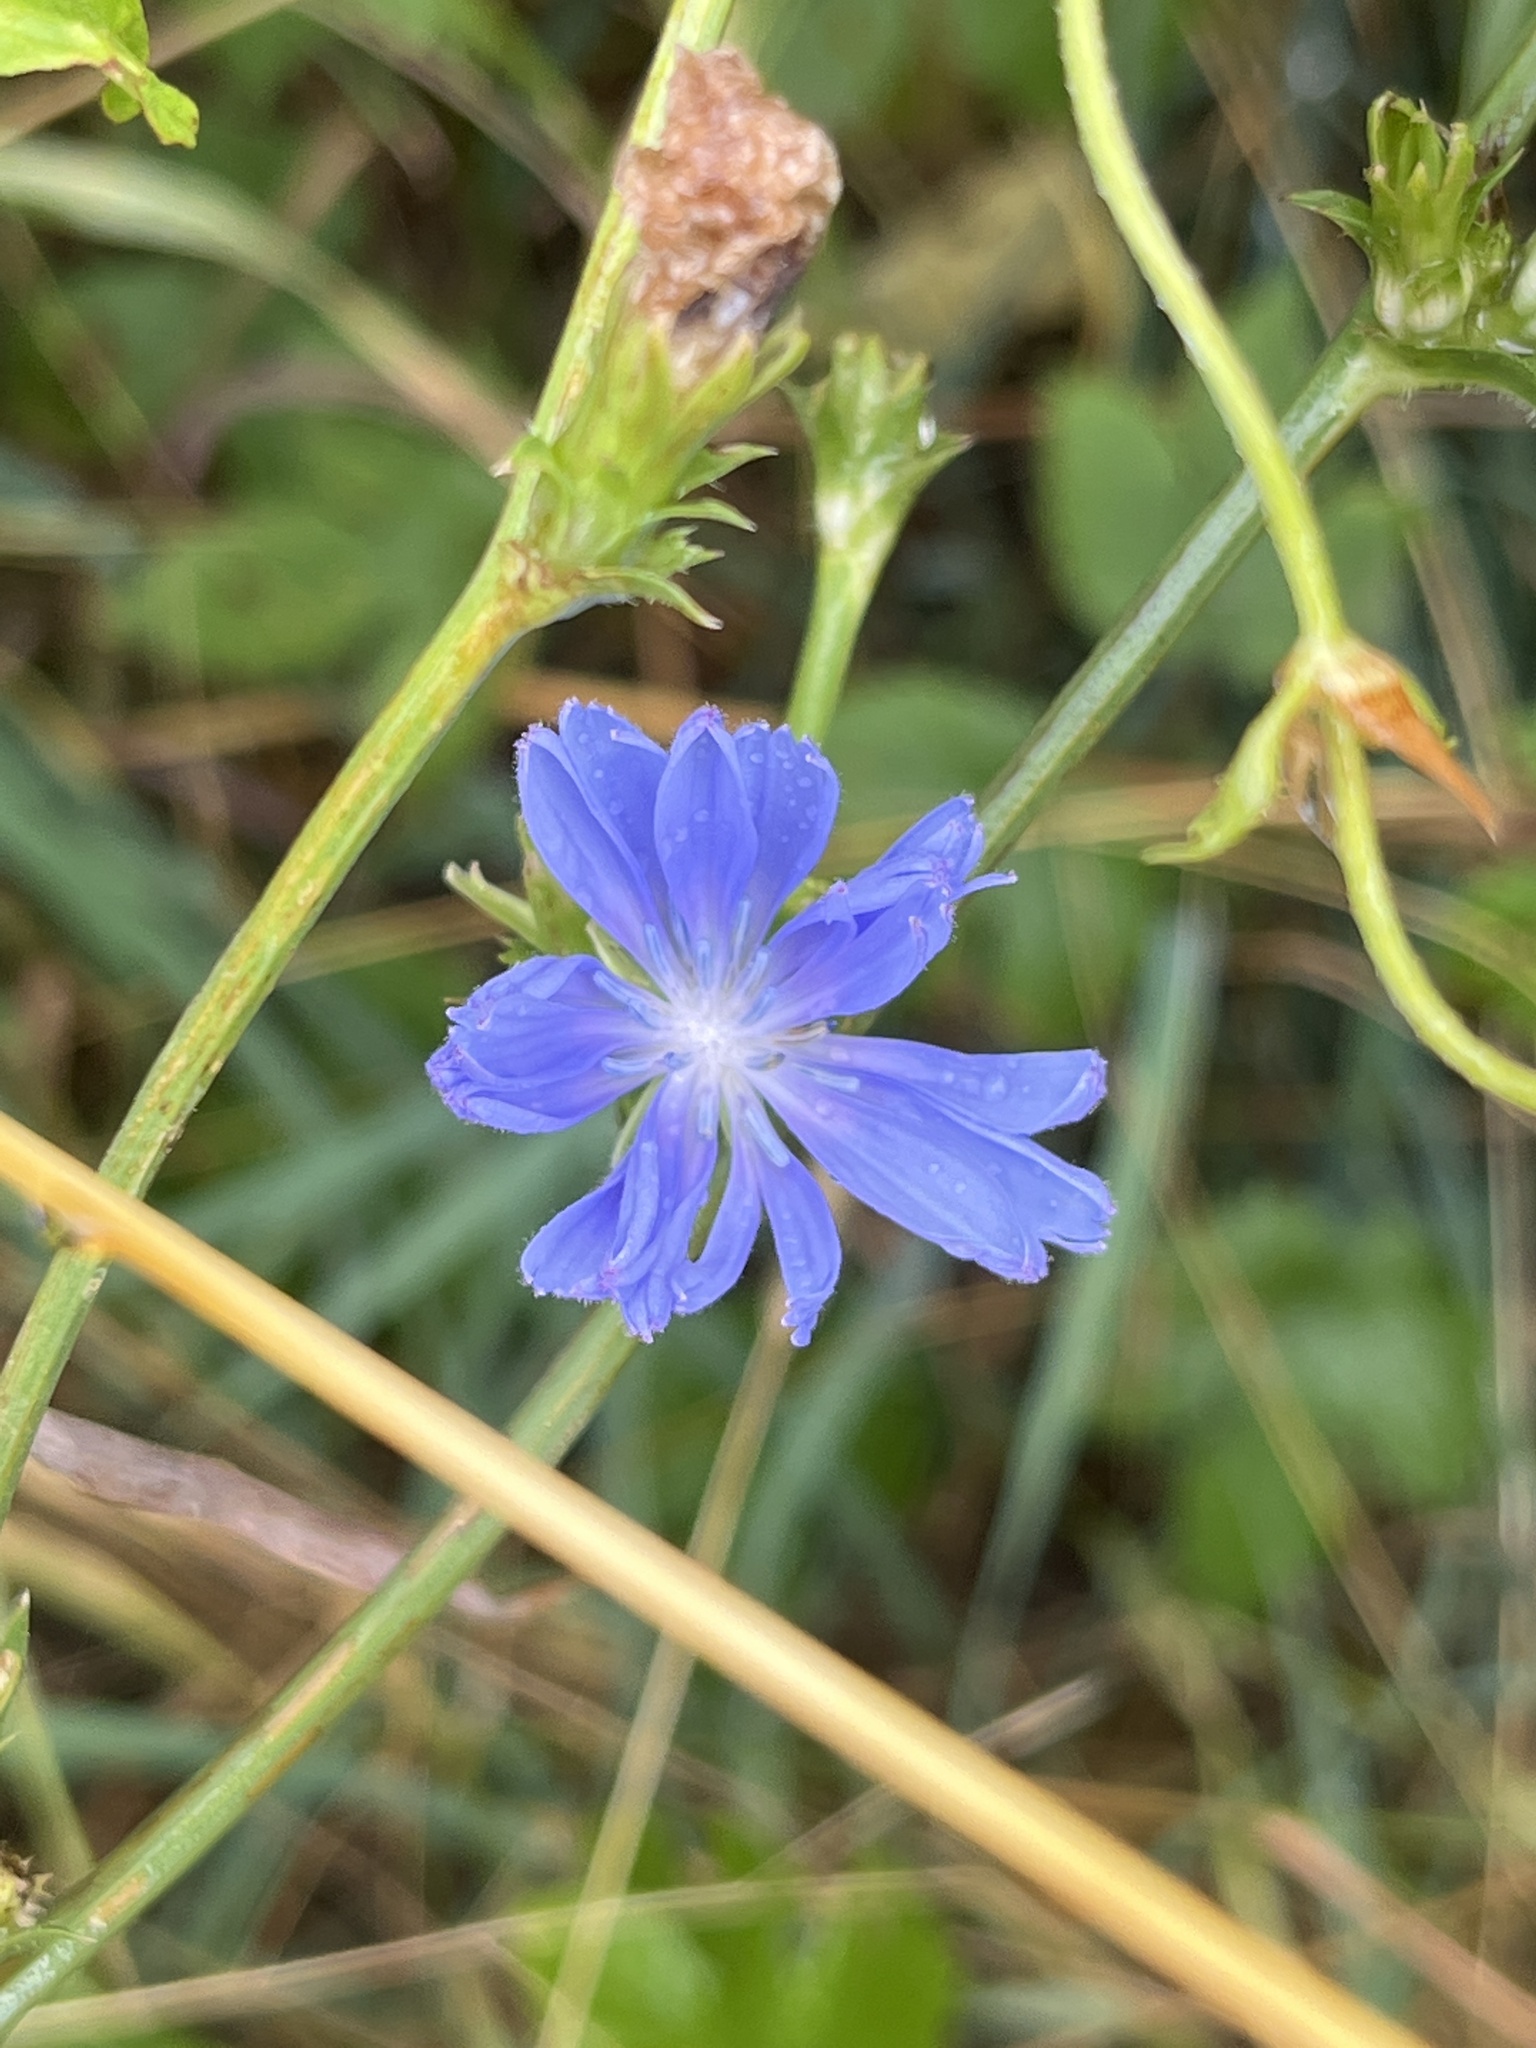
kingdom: Plantae
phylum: Tracheophyta
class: Magnoliopsida
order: Asterales
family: Asteraceae
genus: Cichorium
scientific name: Cichorium intybus
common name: Chicory
